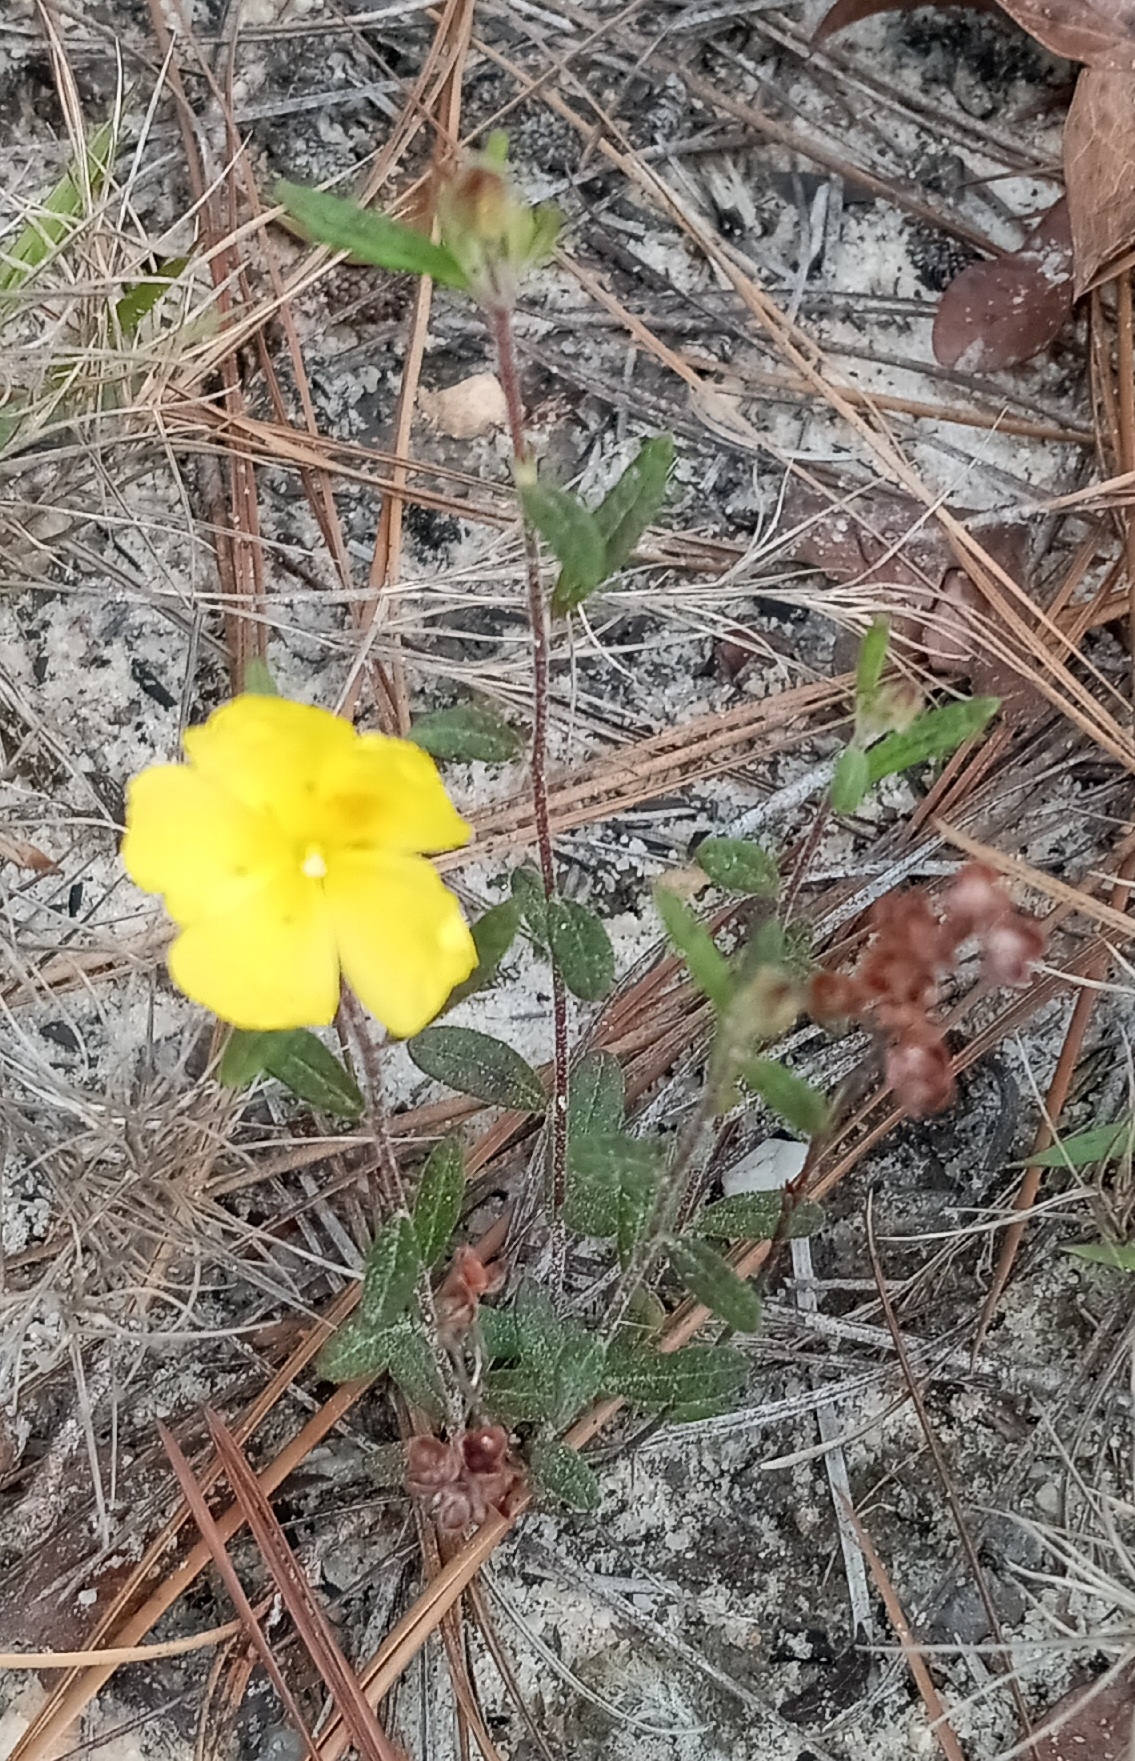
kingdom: Plantae
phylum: Tracheophyta
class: Magnoliopsida
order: Malvales
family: Cistaceae
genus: Crocanthemum
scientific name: Crocanthemum canadense
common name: Canada frostweed
